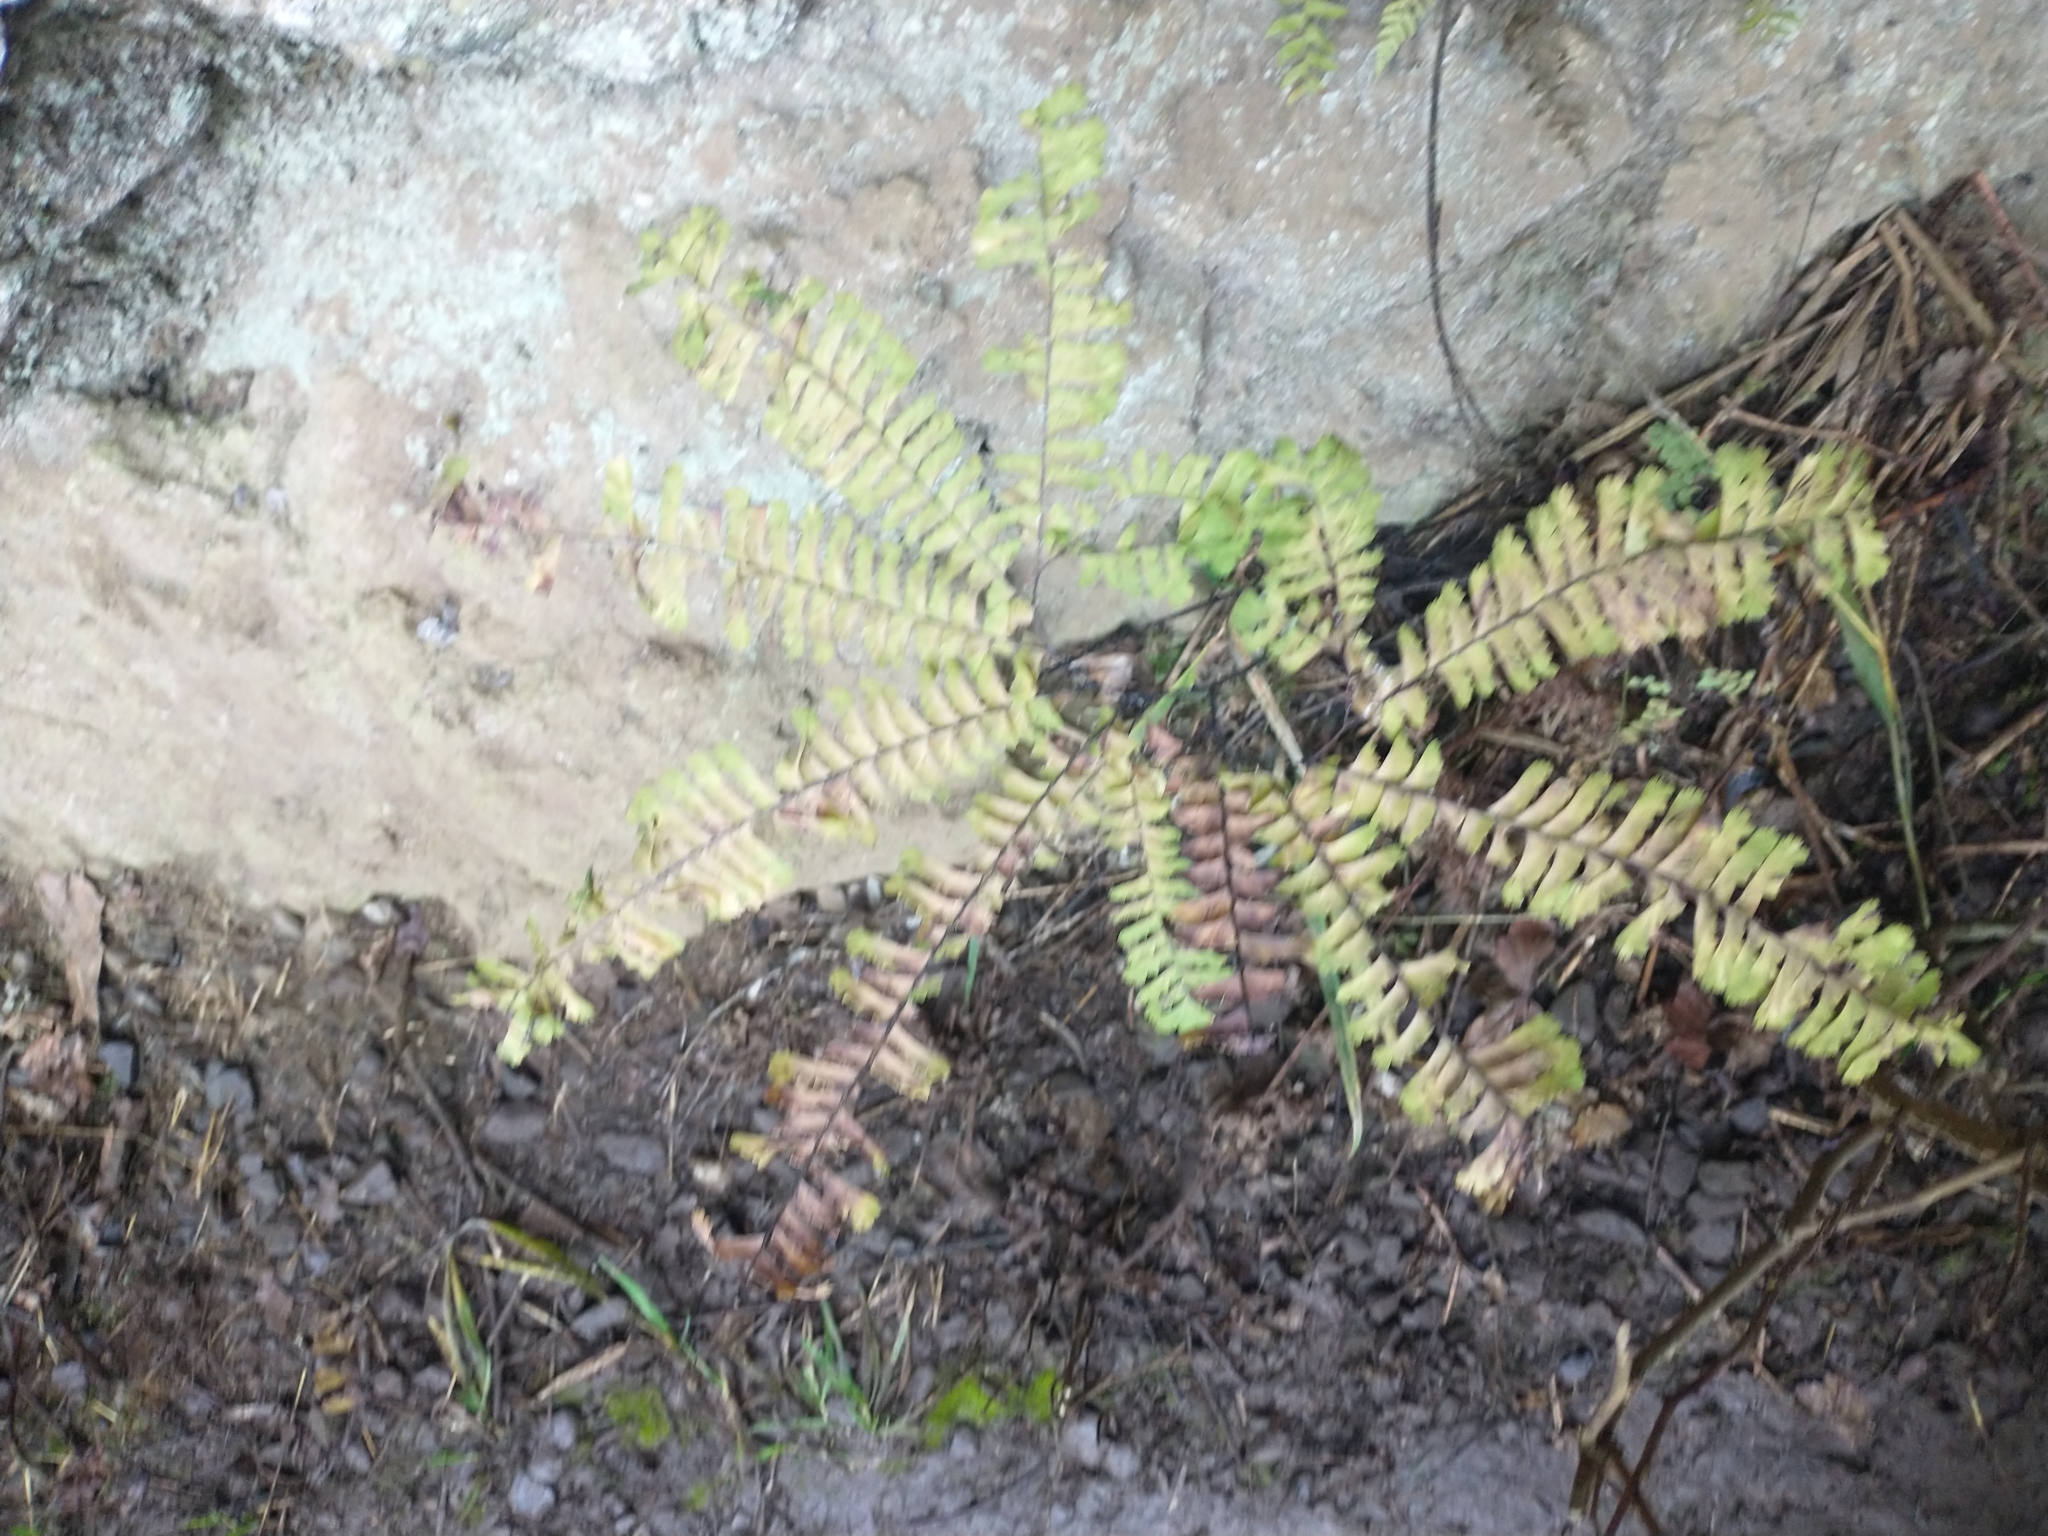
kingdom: Plantae
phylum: Tracheophyta
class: Polypodiopsida
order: Polypodiales
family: Pteridaceae
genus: Adiantum
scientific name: Adiantum aleuticum
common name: Aleutian maidenhair fern
